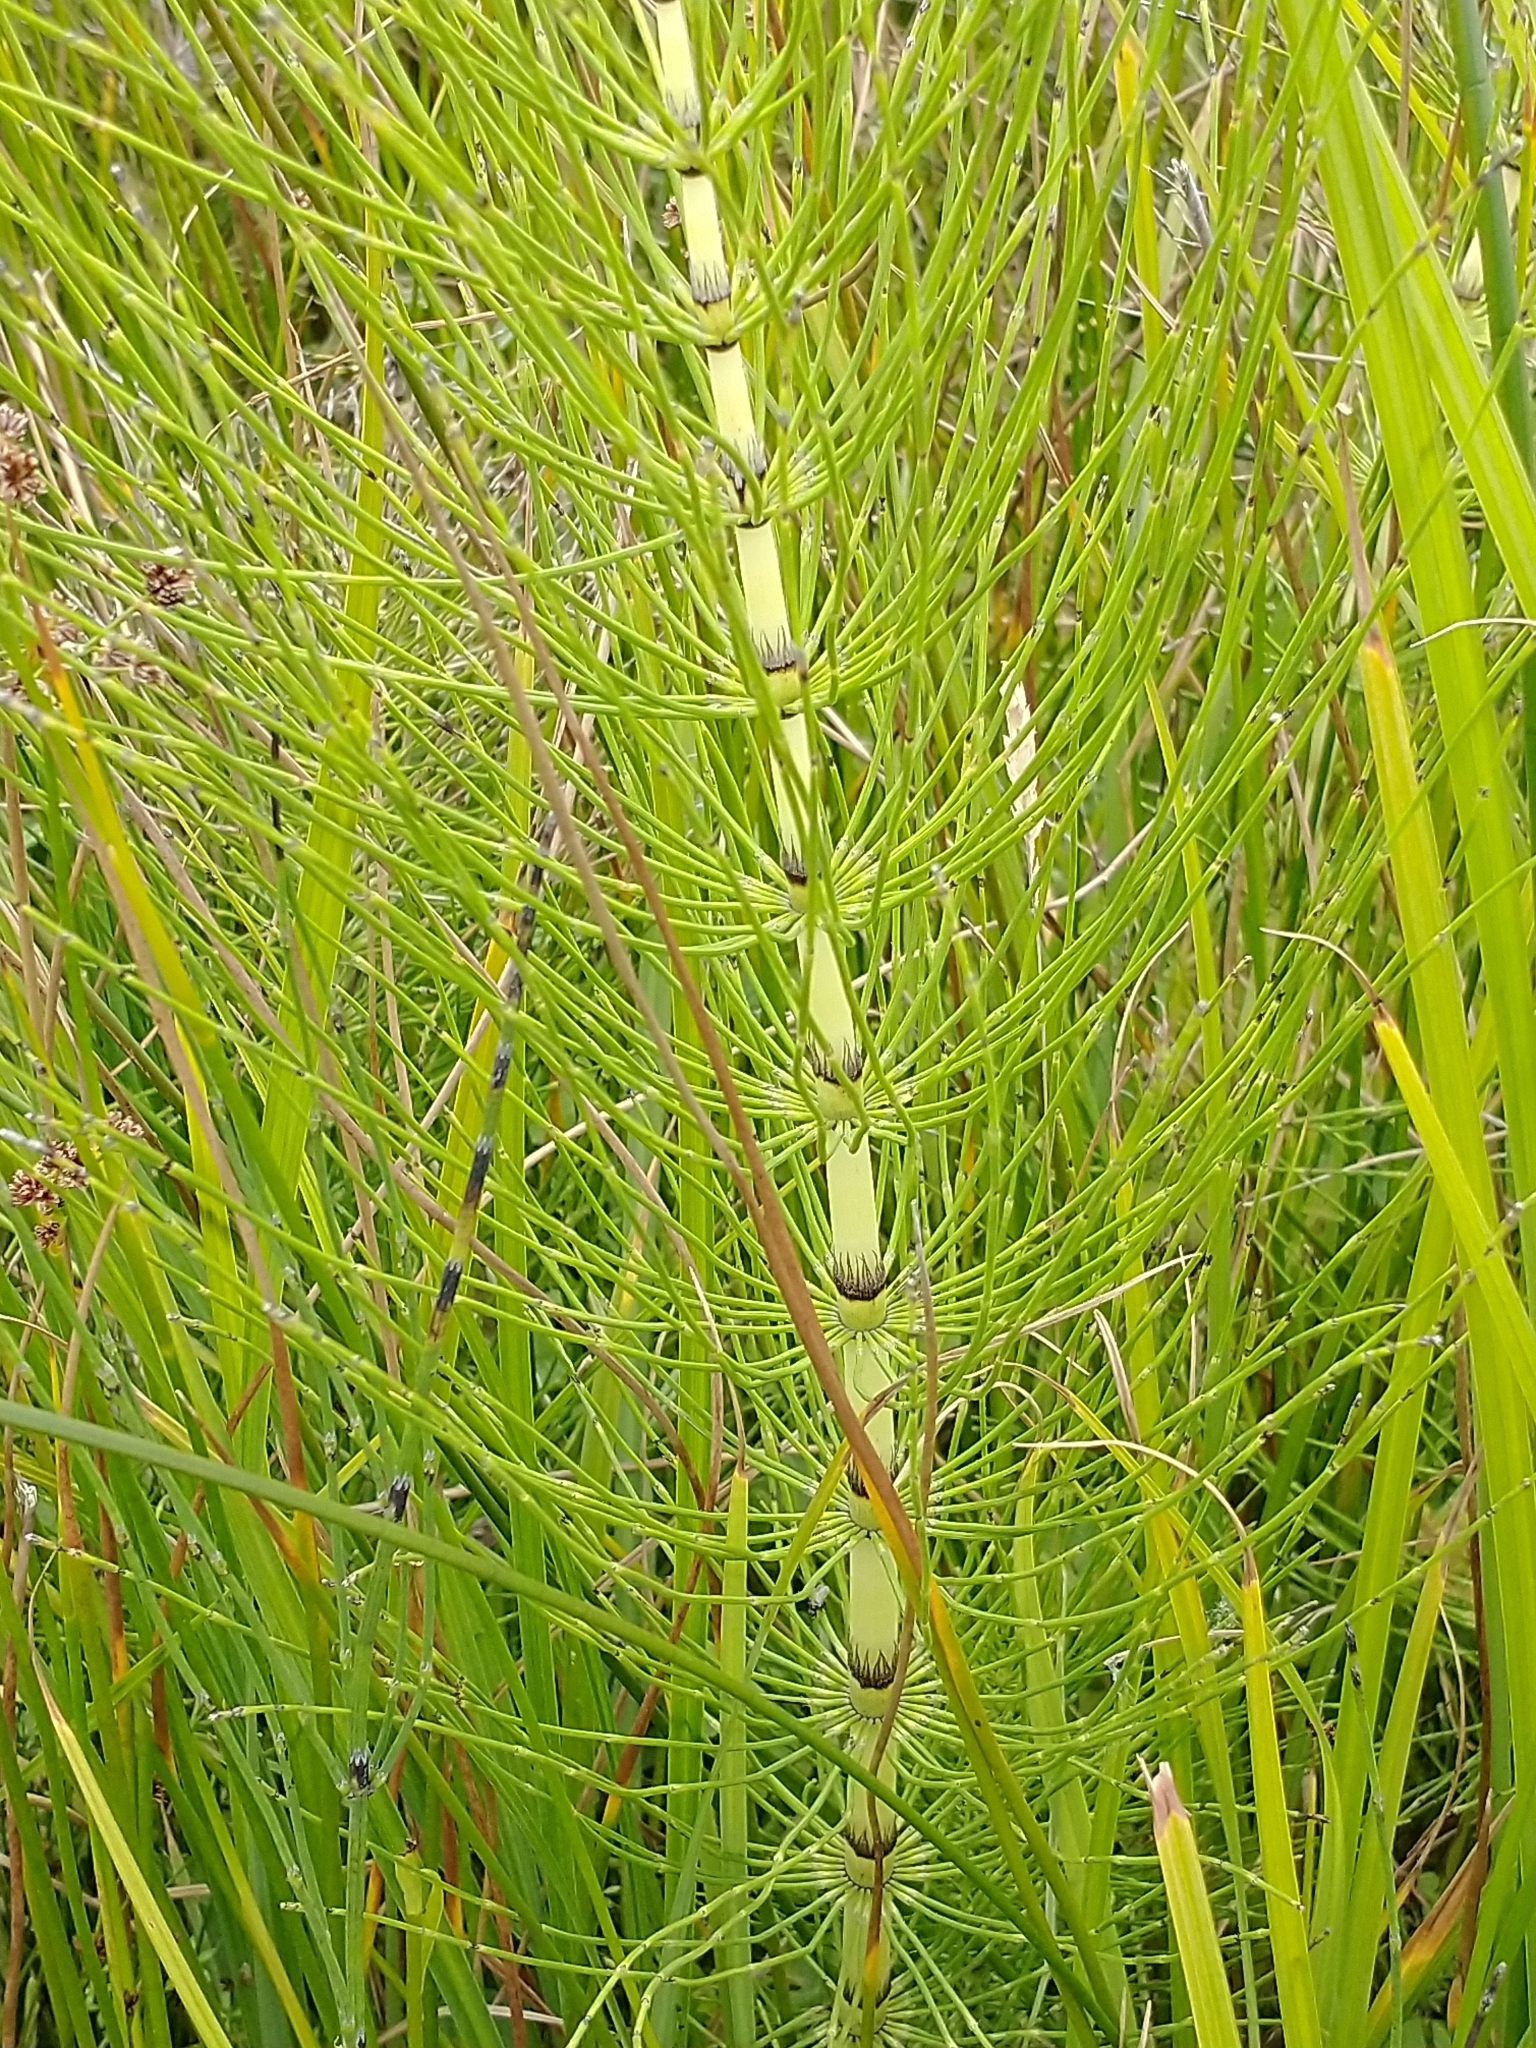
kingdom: Plantae
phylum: Tracheophyta
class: Polypodiopsida
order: Equisetales
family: Equisetaceae
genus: Equisetum
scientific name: Equisetum telmateia
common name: Great horsetail
